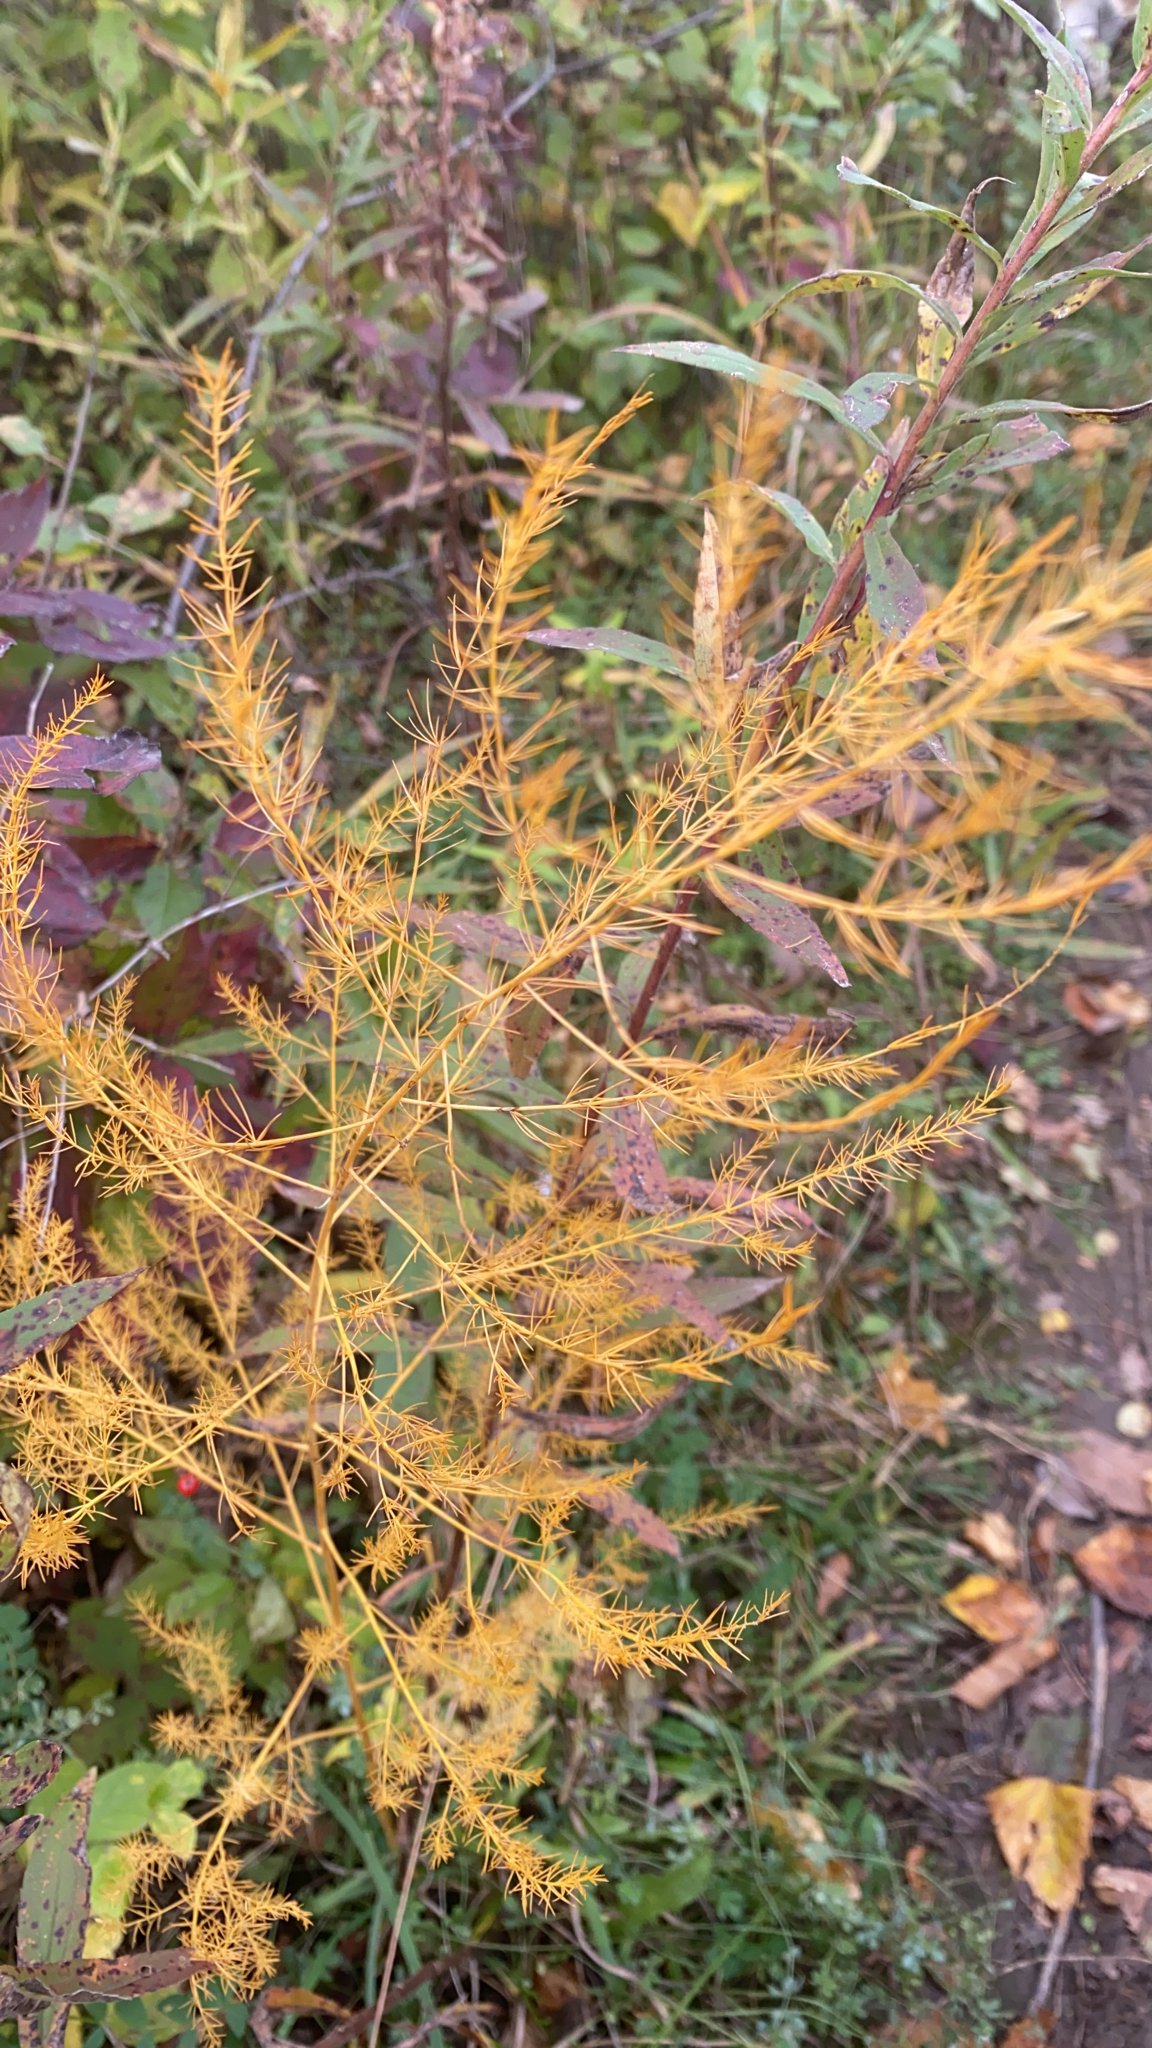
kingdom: Plantae
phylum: Tracheophyta
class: Liliopsida
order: Asparagales
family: Asparagaceae
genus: Asparagus
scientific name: Asparagus officinalis
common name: Garden asparagus
